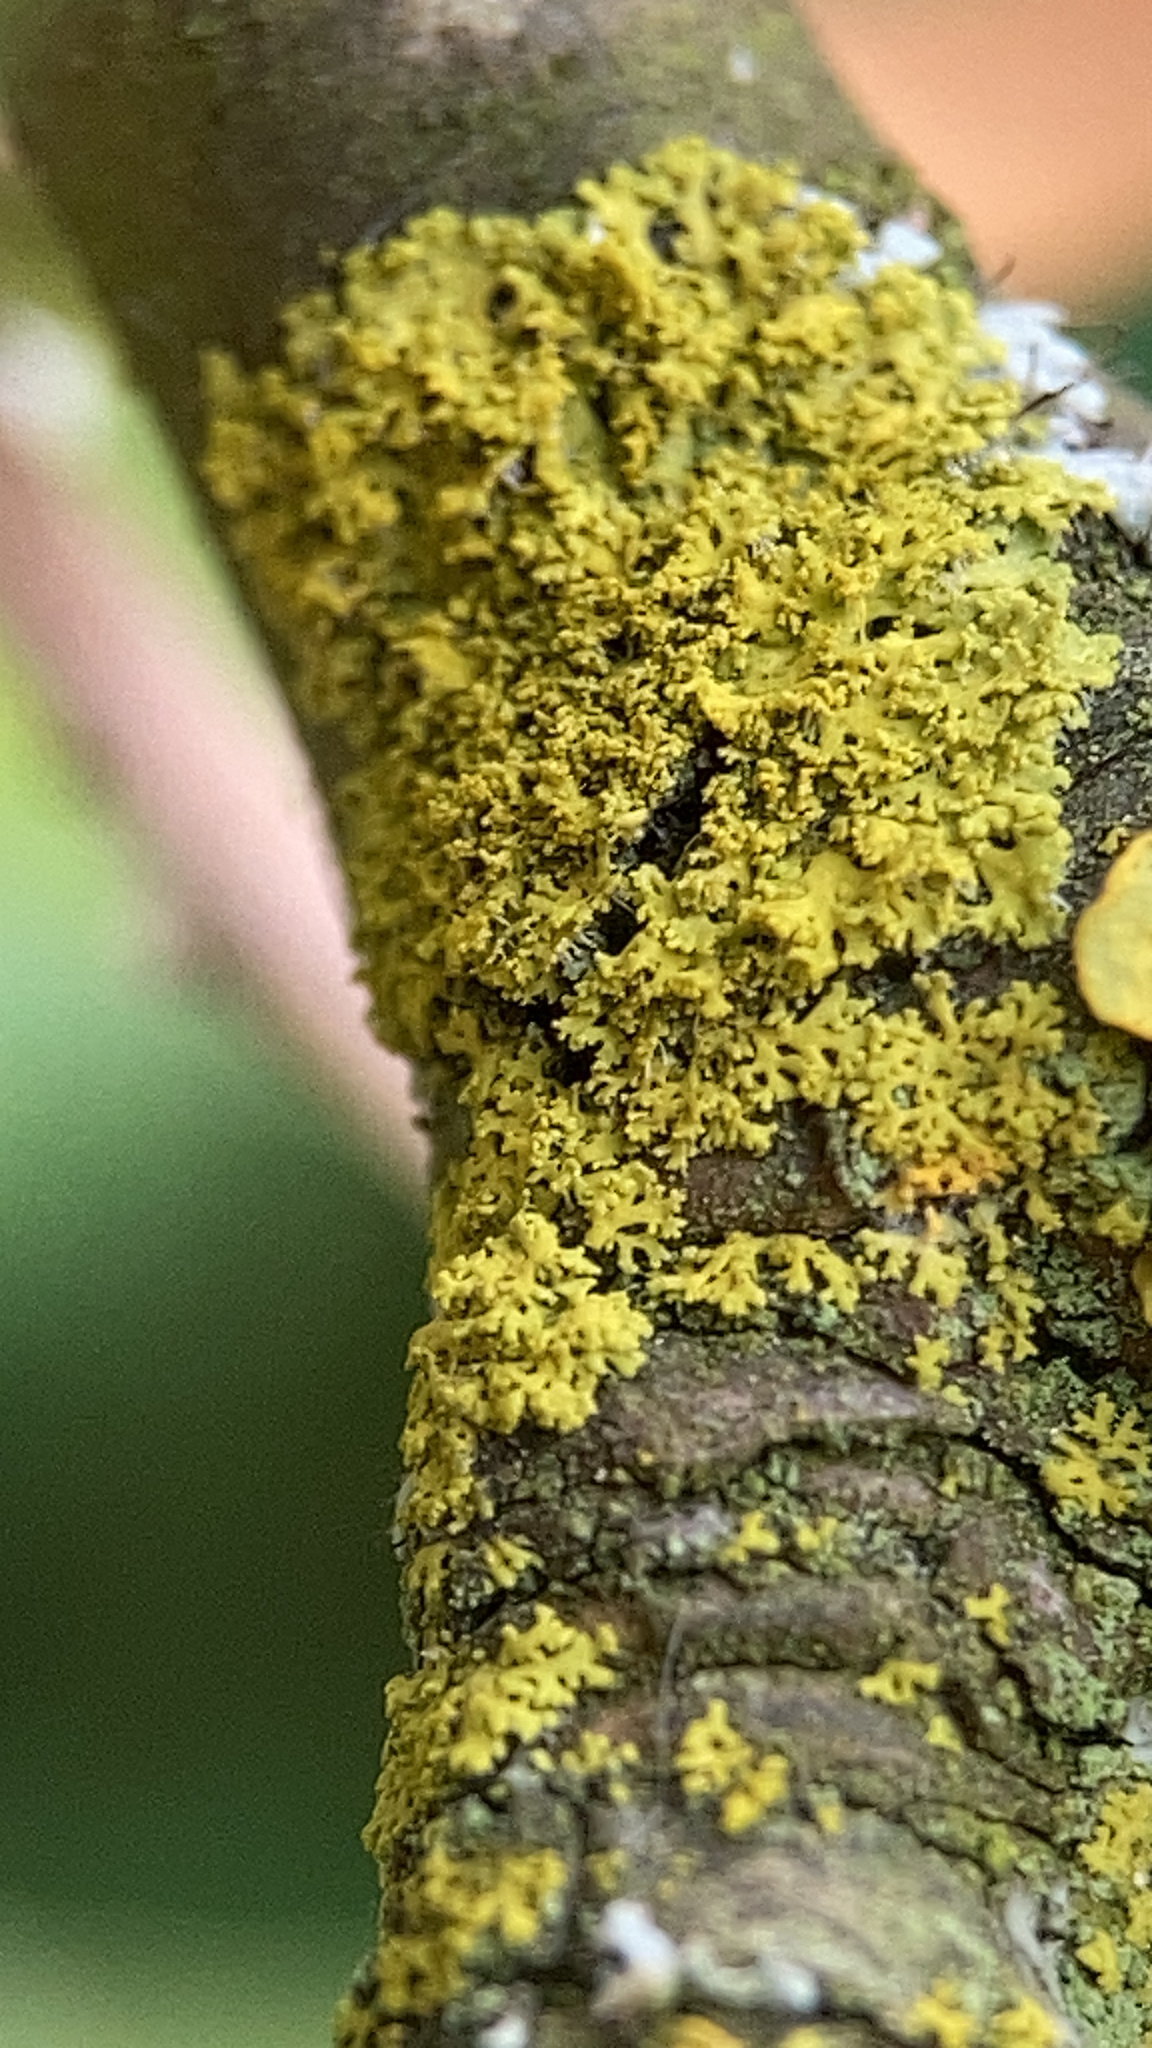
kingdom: Fungi
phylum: Ascomycota
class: Candelariomycetes
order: Candelariales
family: Candelariaceae
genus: Candelaria
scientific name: Candelaria concolor
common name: Candleflame lichen
